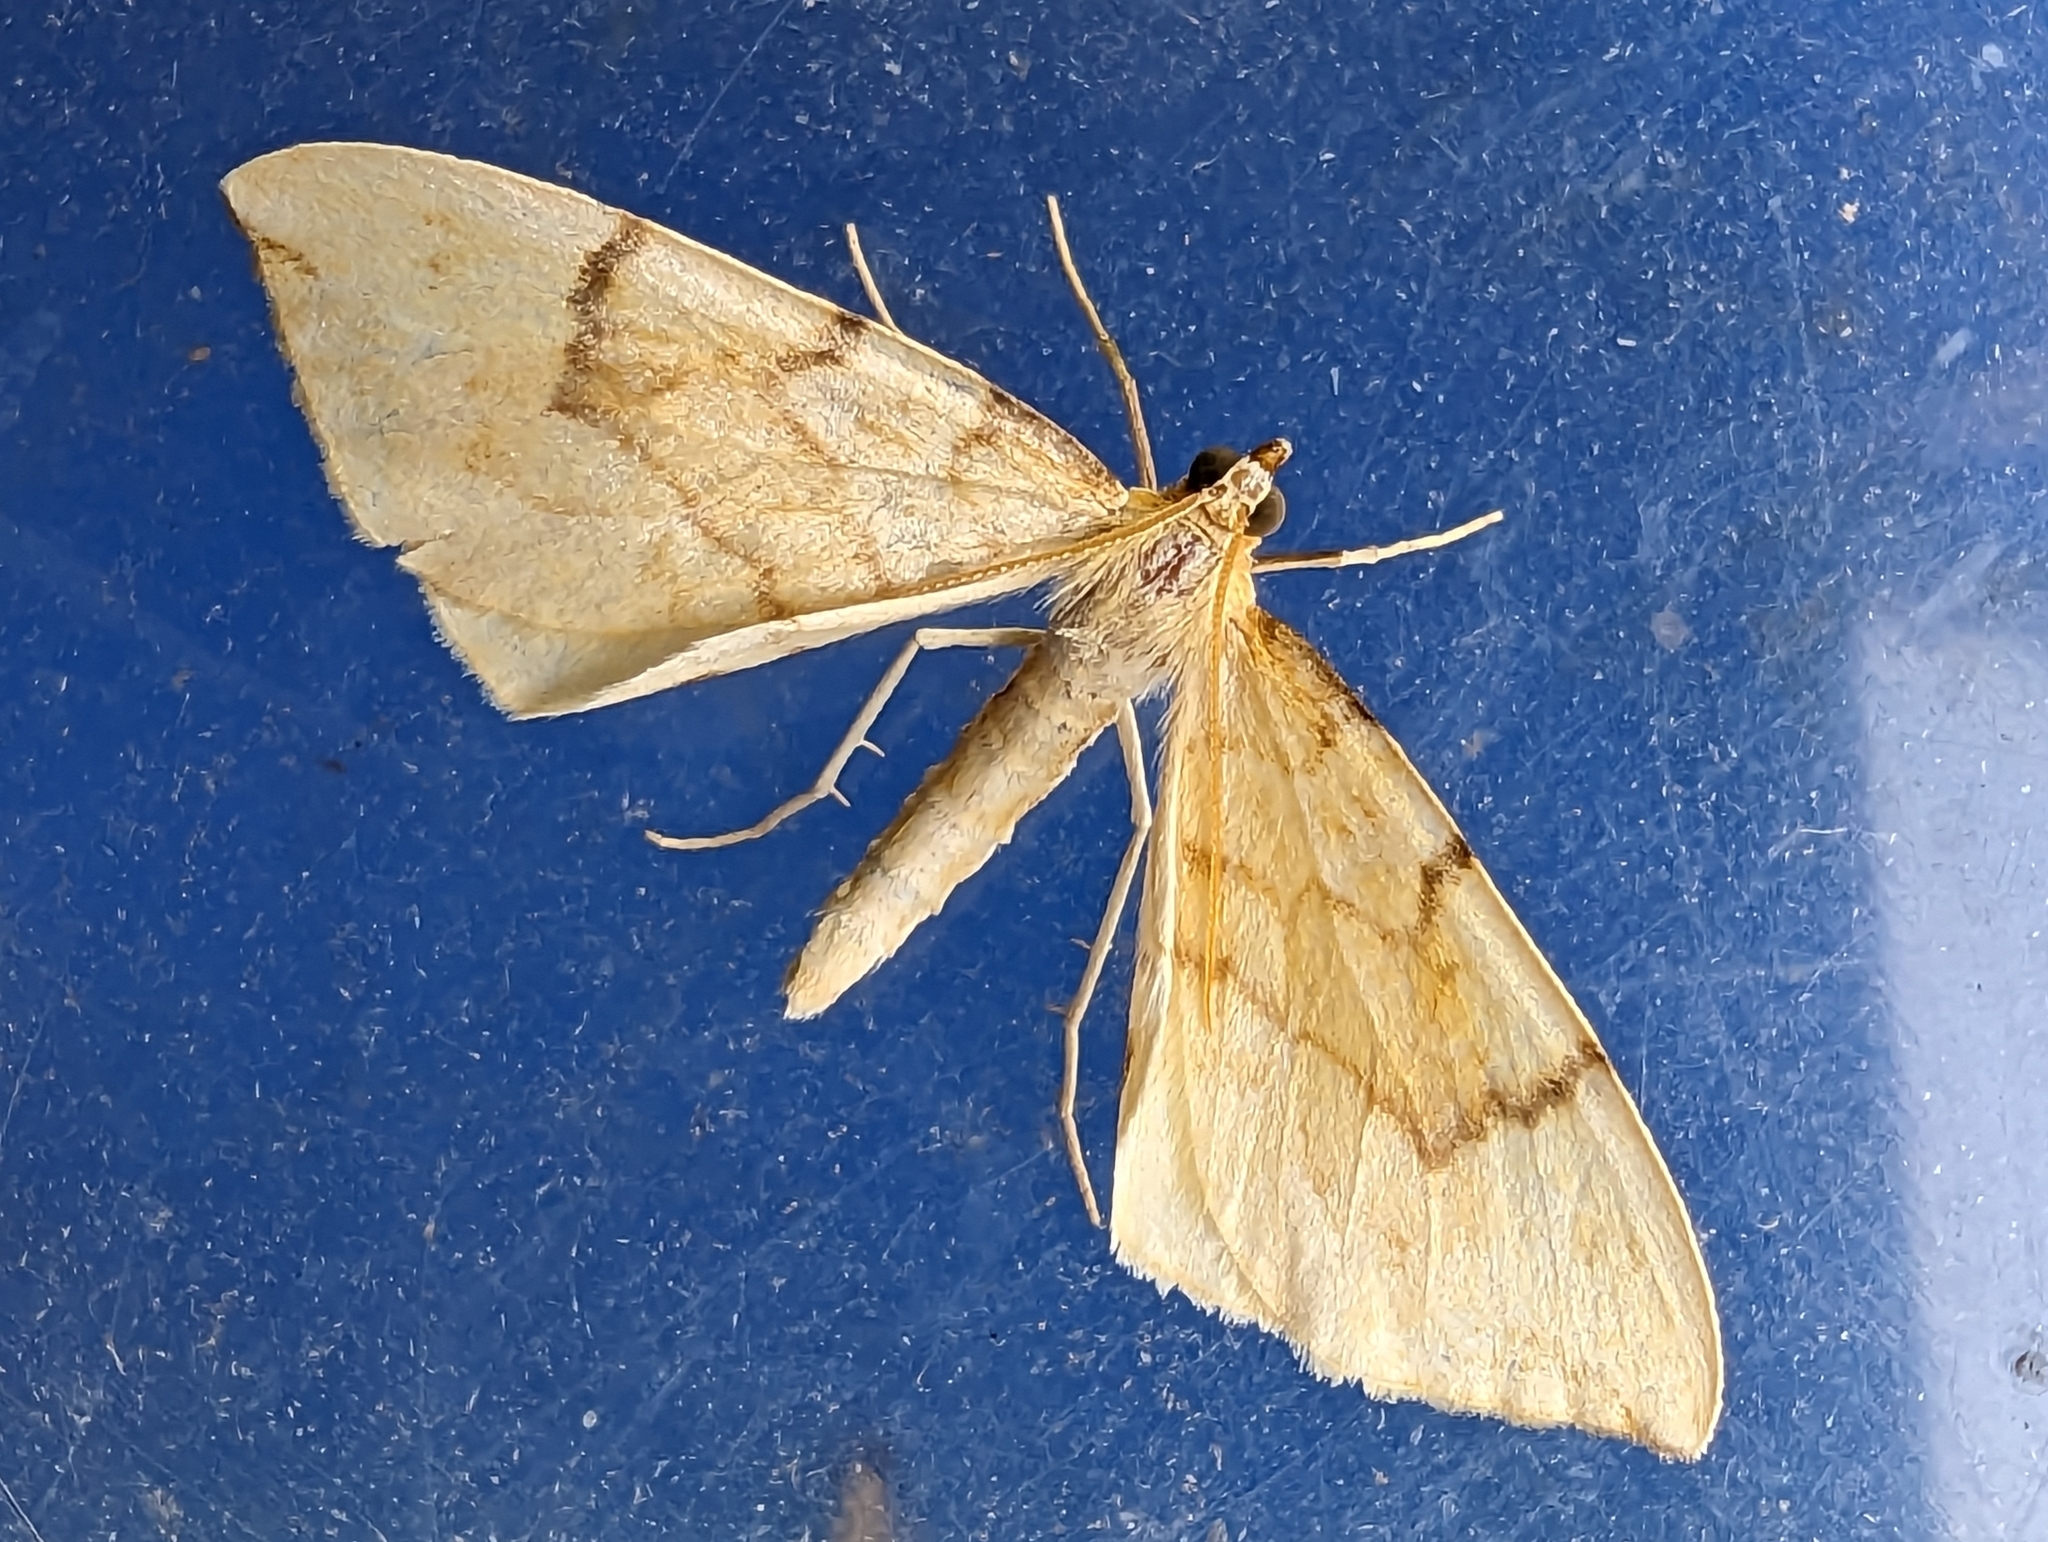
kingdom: Animalia
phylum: Arthropoda
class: Insecta
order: Lepidoptera
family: Geometridae
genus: Eulithis
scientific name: Eulithis pyraliata
